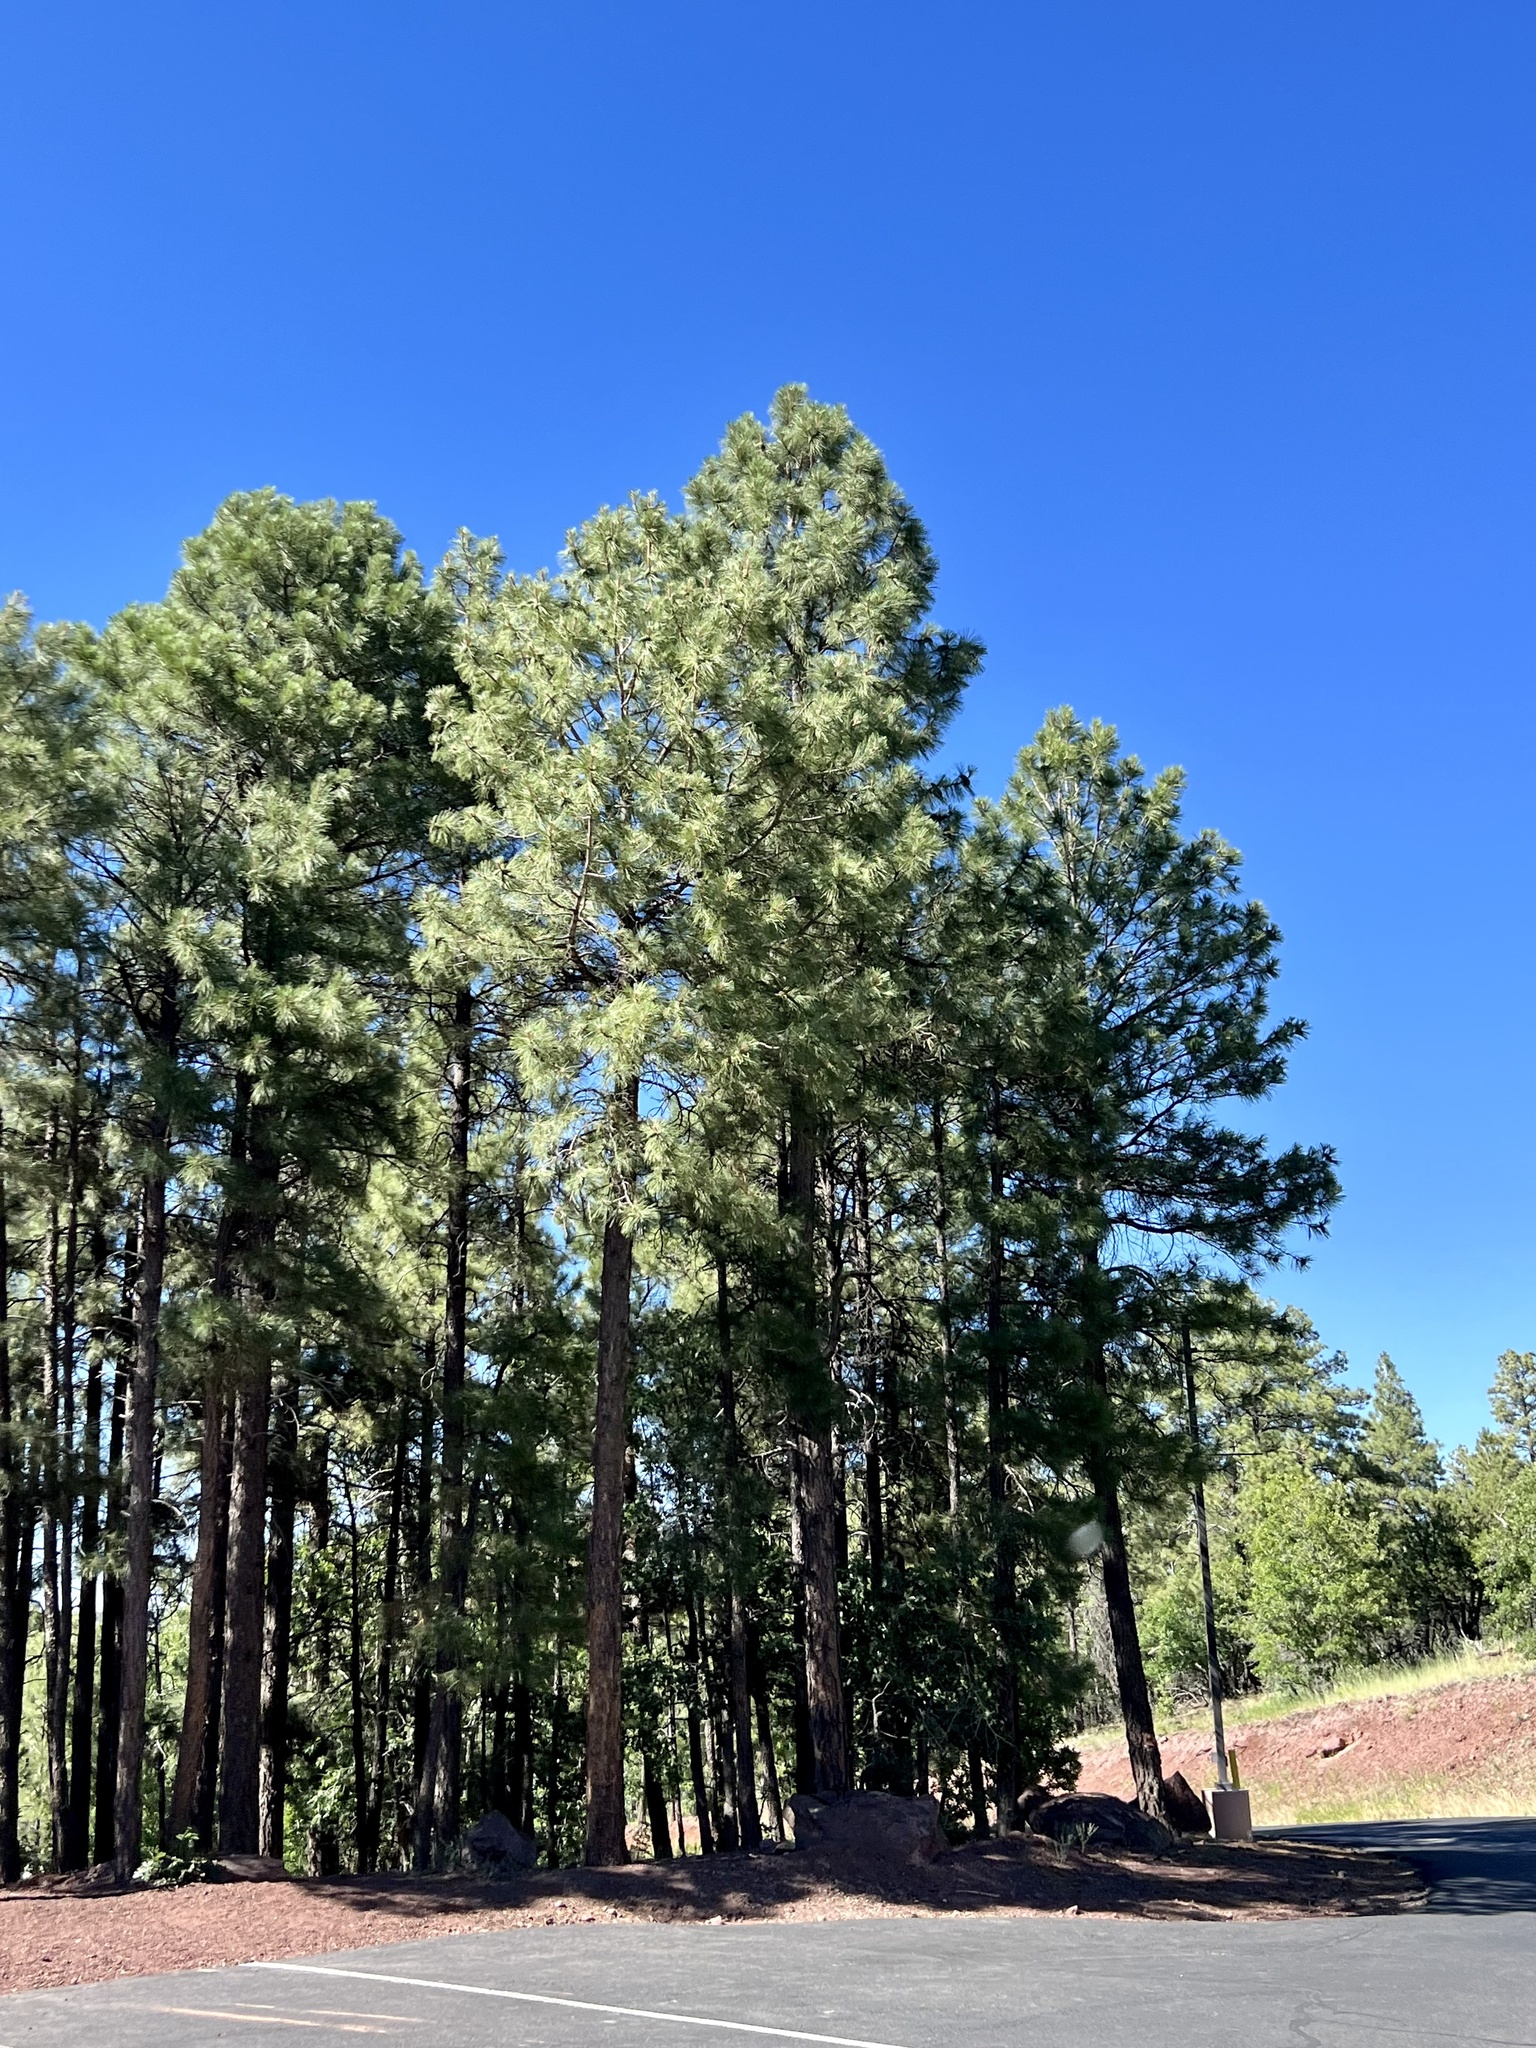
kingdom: Plantae
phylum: Tracheophyta
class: Pinopsida
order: Pinales
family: Pinaceae
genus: Pinus
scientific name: Pinus ponderosa
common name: Western yellow-pine
